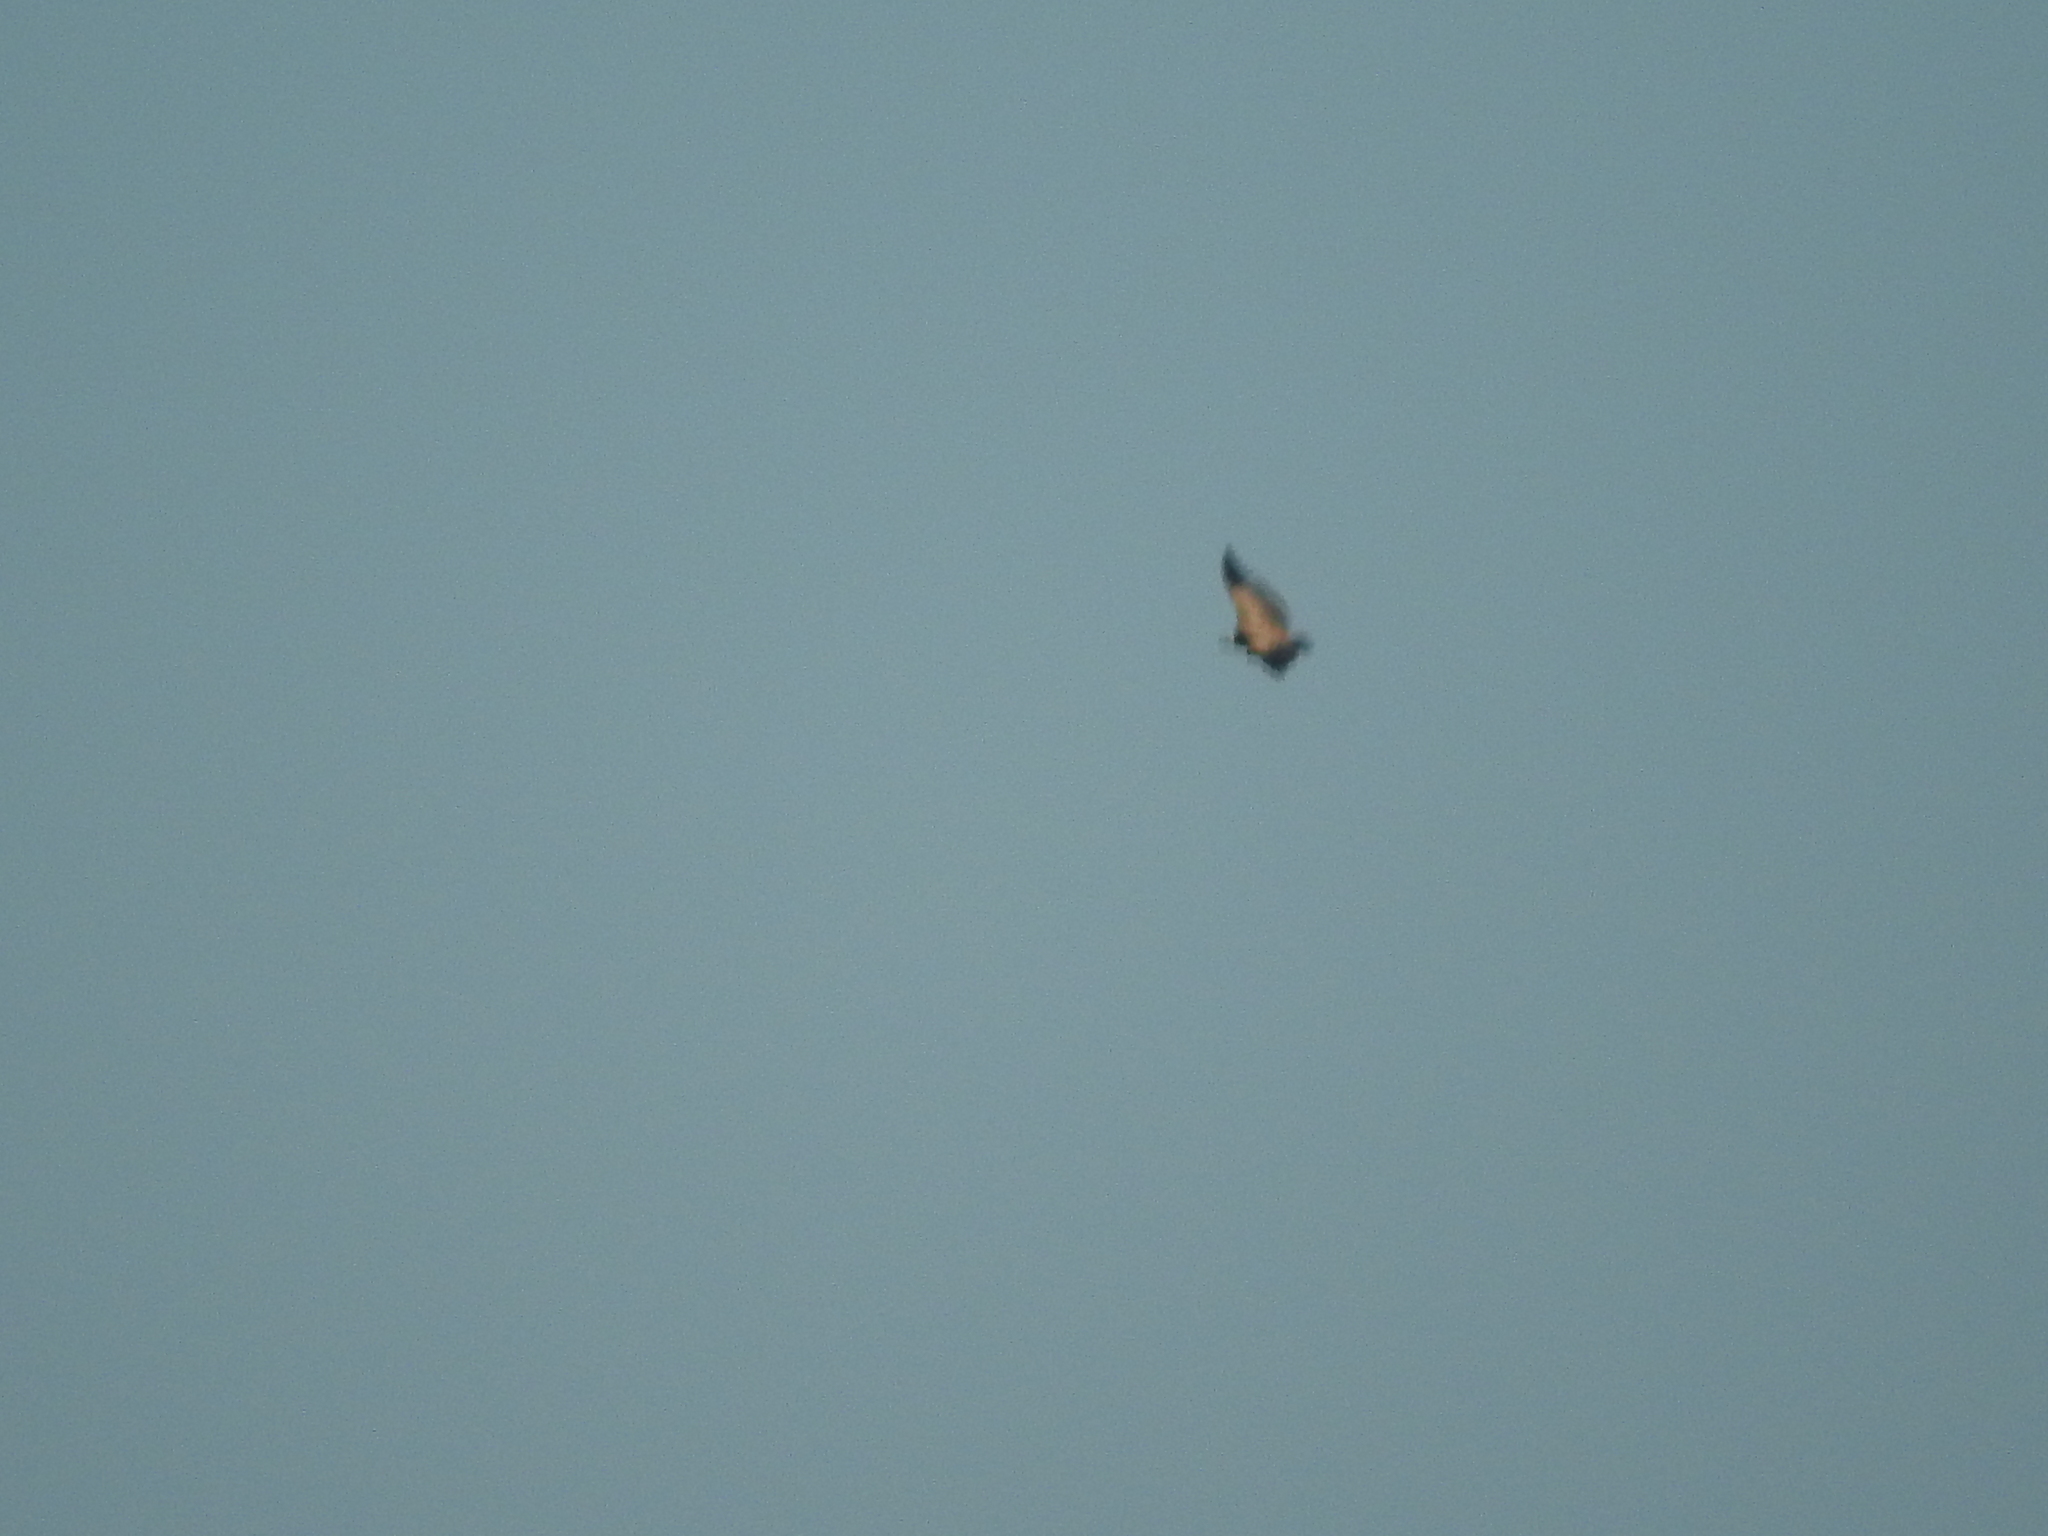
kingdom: Animalia
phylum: Chordata
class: Aves
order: Accipitriformes
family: Accipitridae
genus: Gyps
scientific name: Gyps fulvus
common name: Griffon vulture
